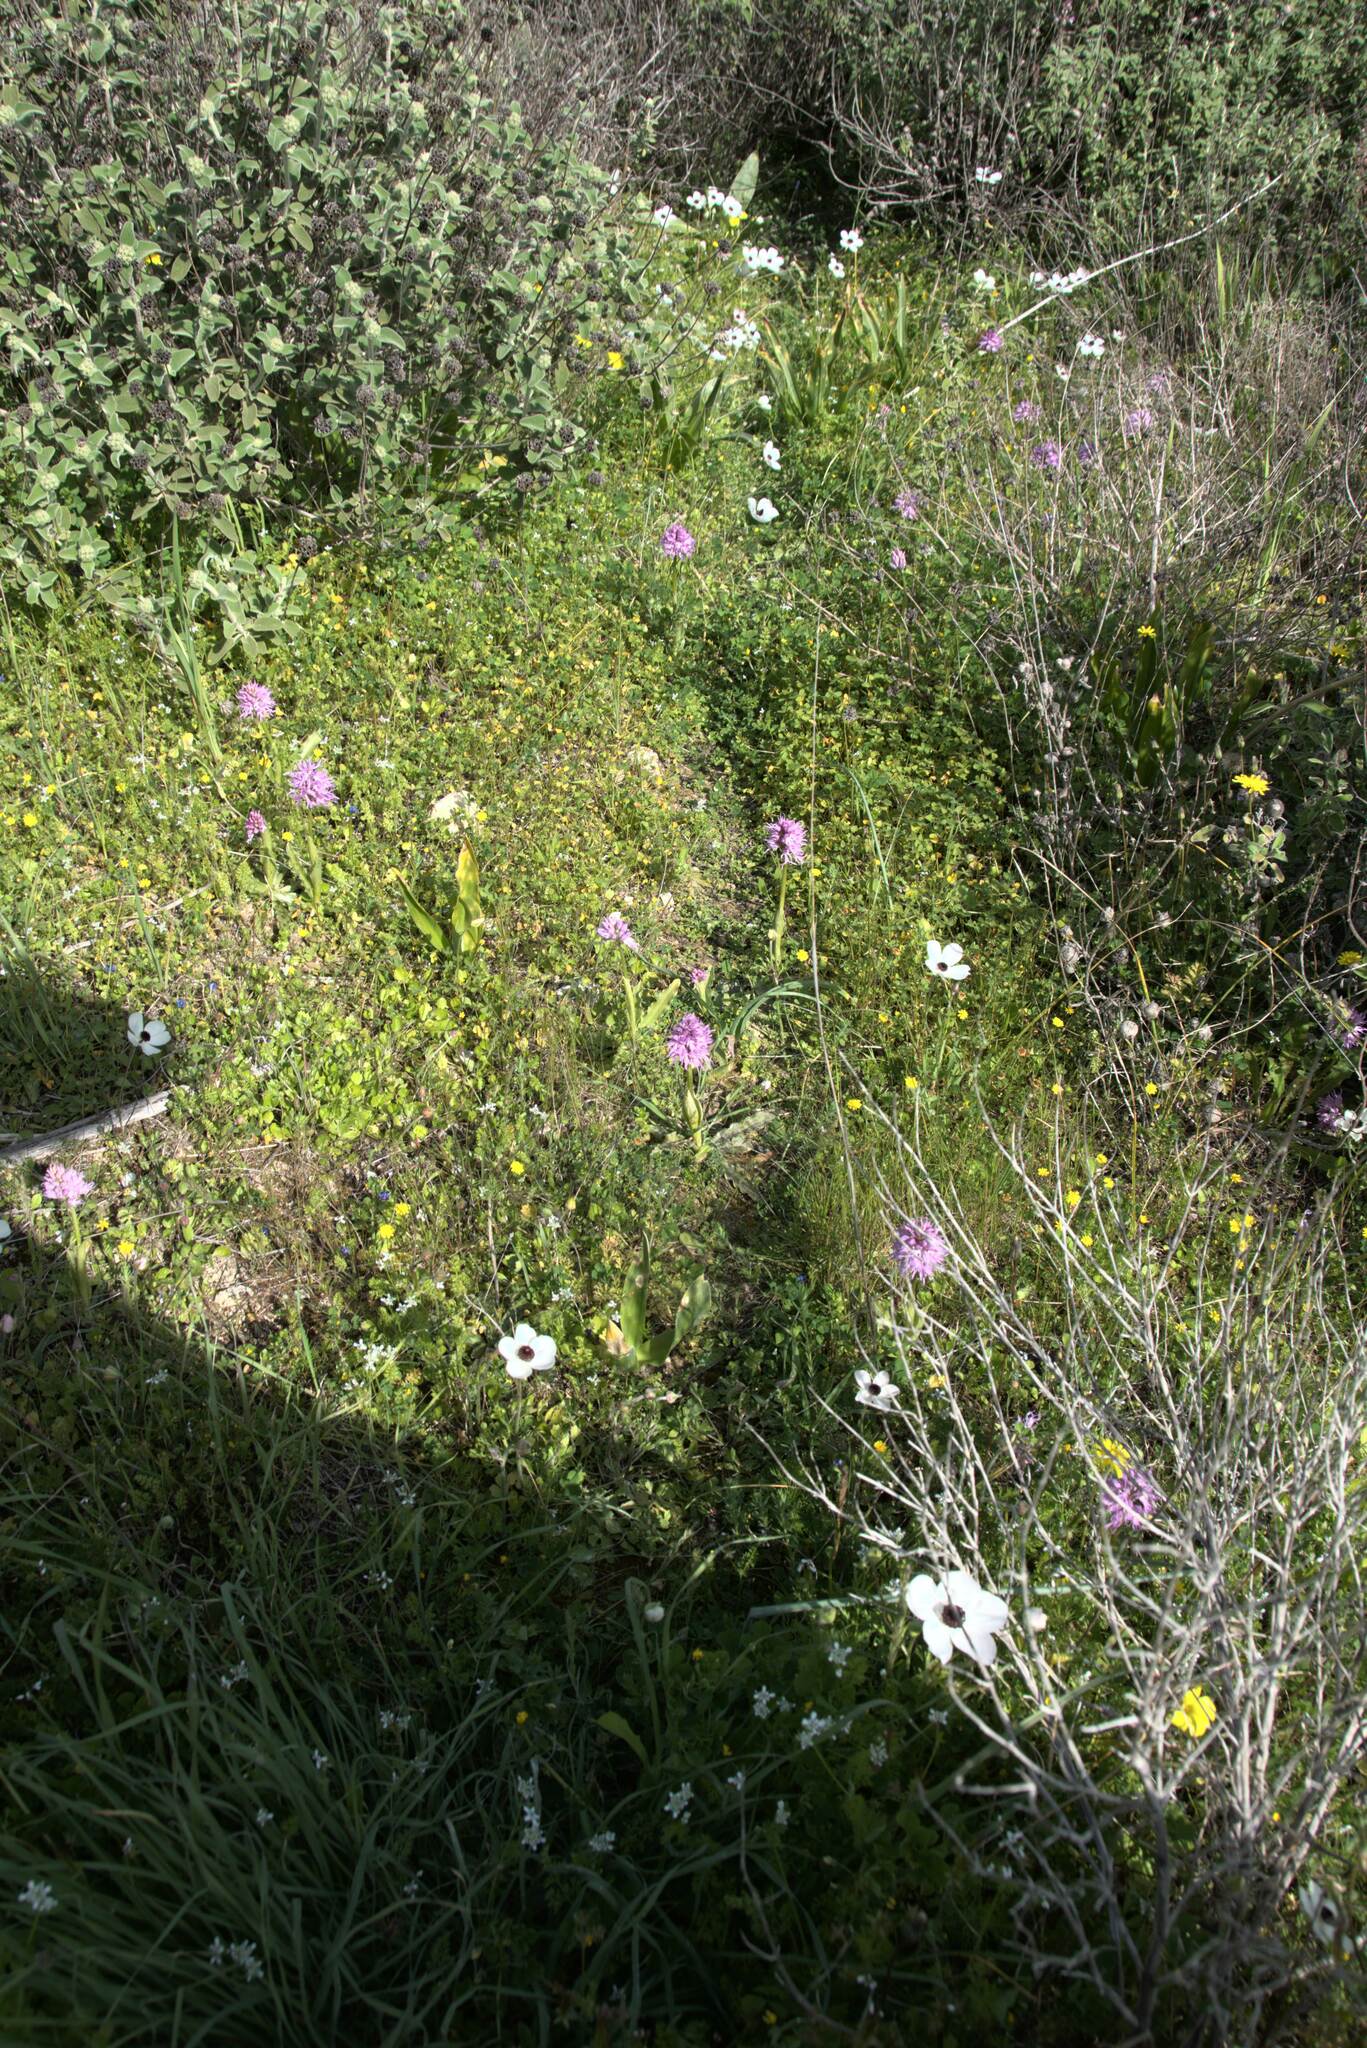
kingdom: Plantae
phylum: Tracheophyta
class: Liliopsida
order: Asparagales
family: Orchidaceae
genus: Orchis
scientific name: Orchis italica
